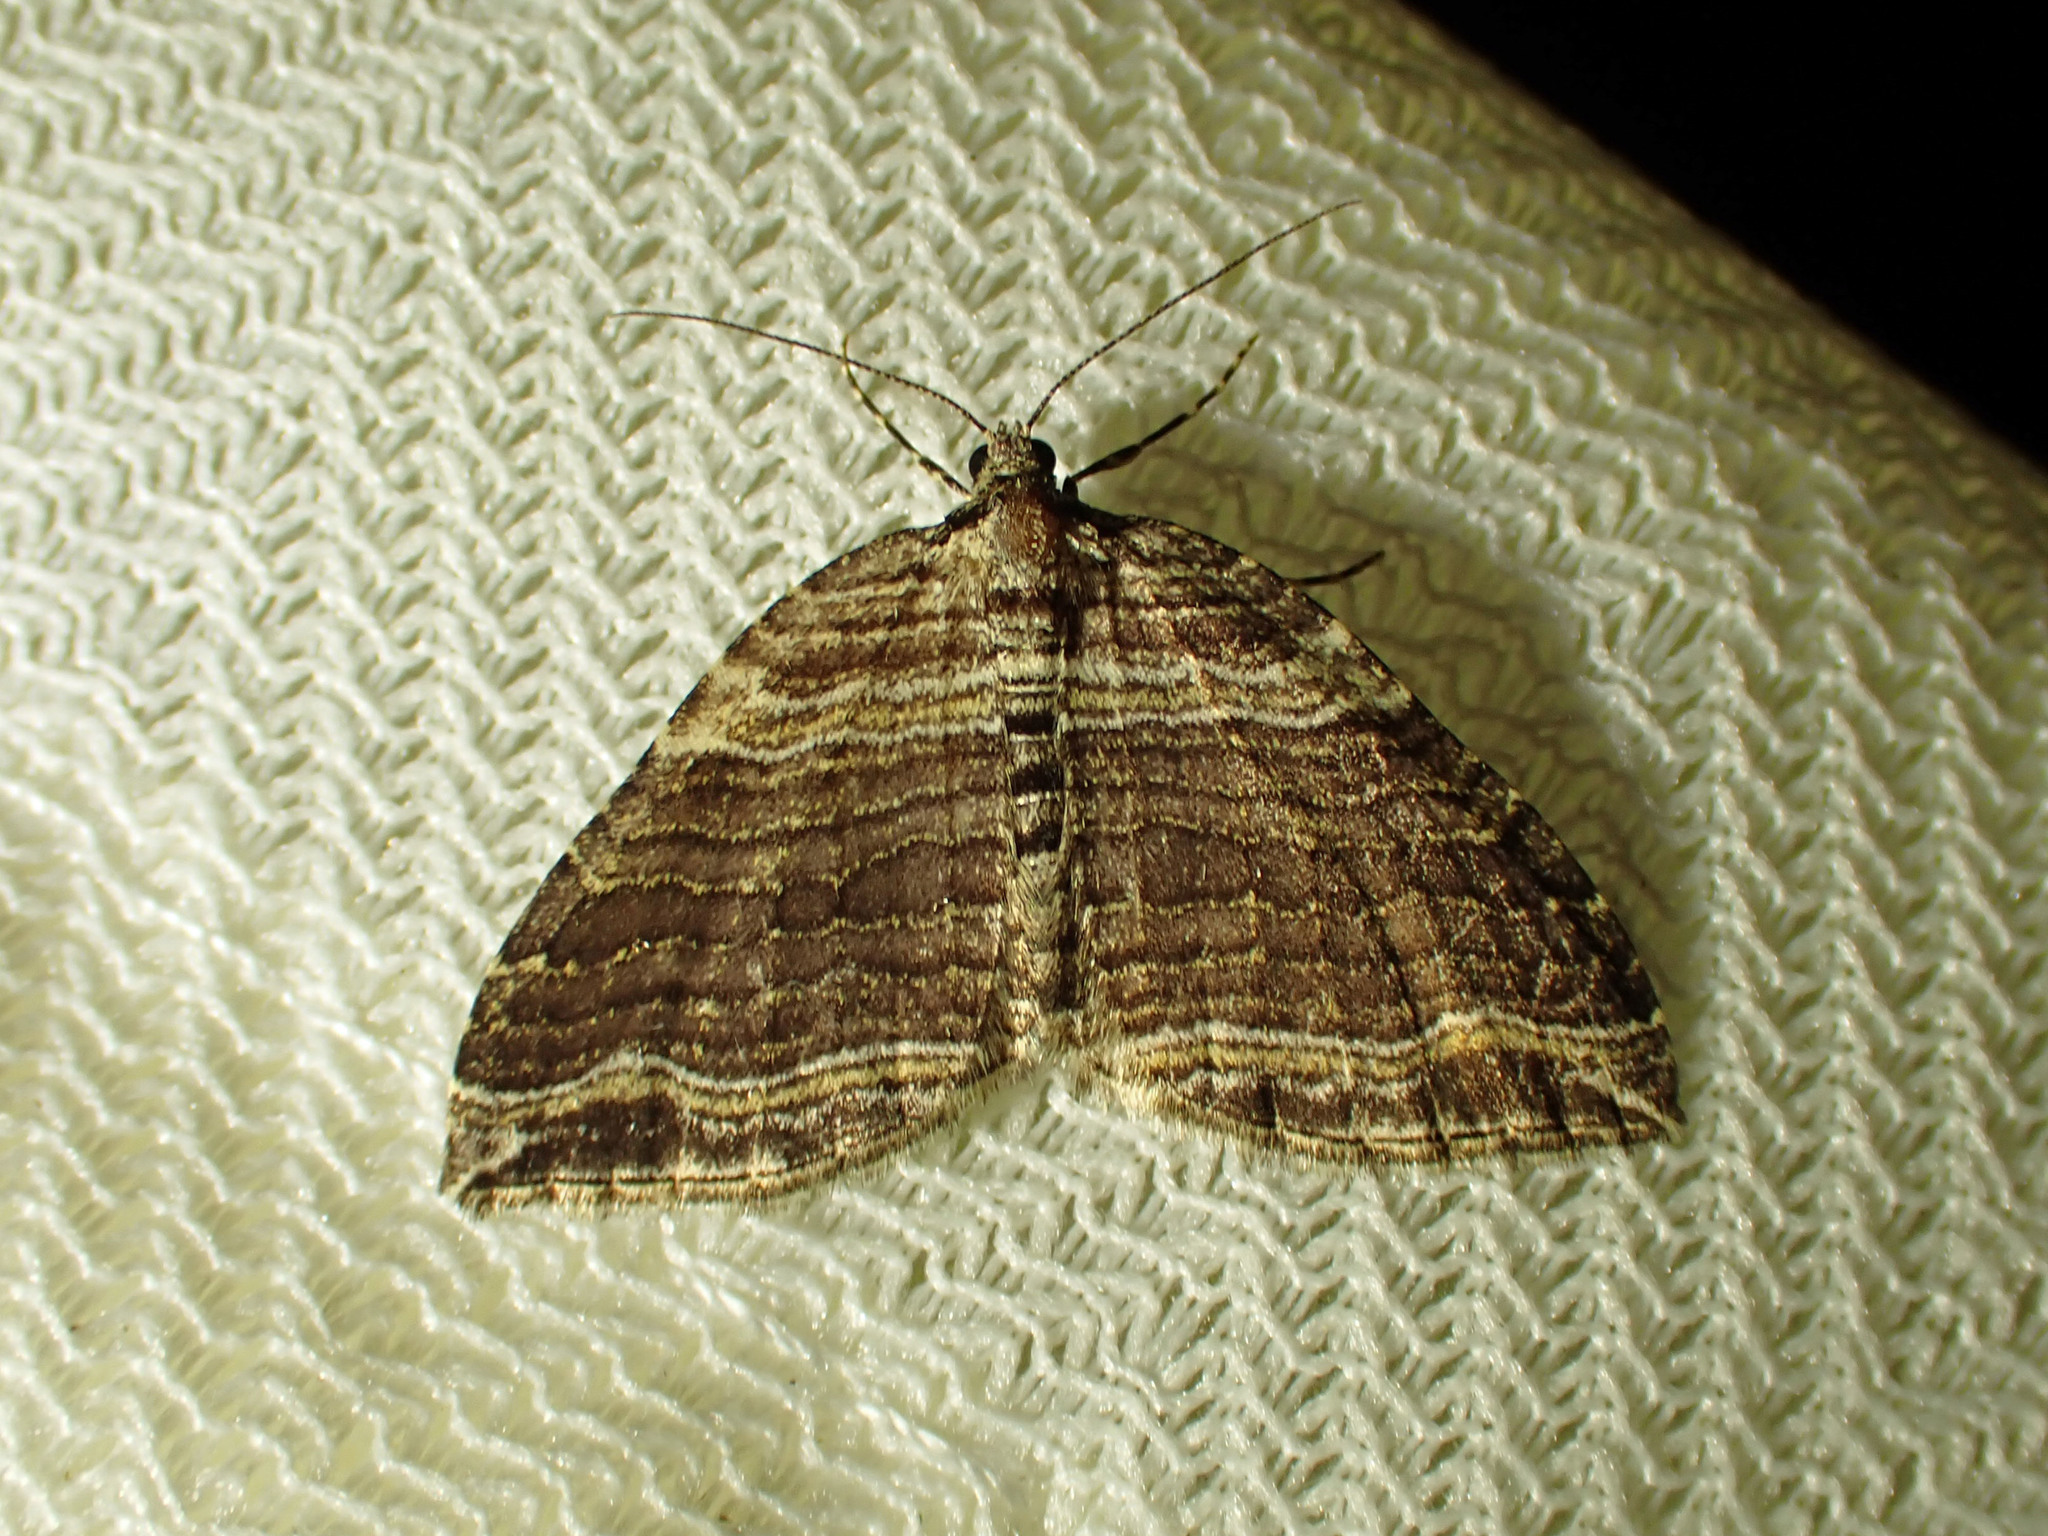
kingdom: Animalia
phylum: Arthropoda
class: Insecta
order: Lepidoptera
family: Geometridae
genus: Anticlea
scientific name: Anticlea multiferata
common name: Many-lined carpet
